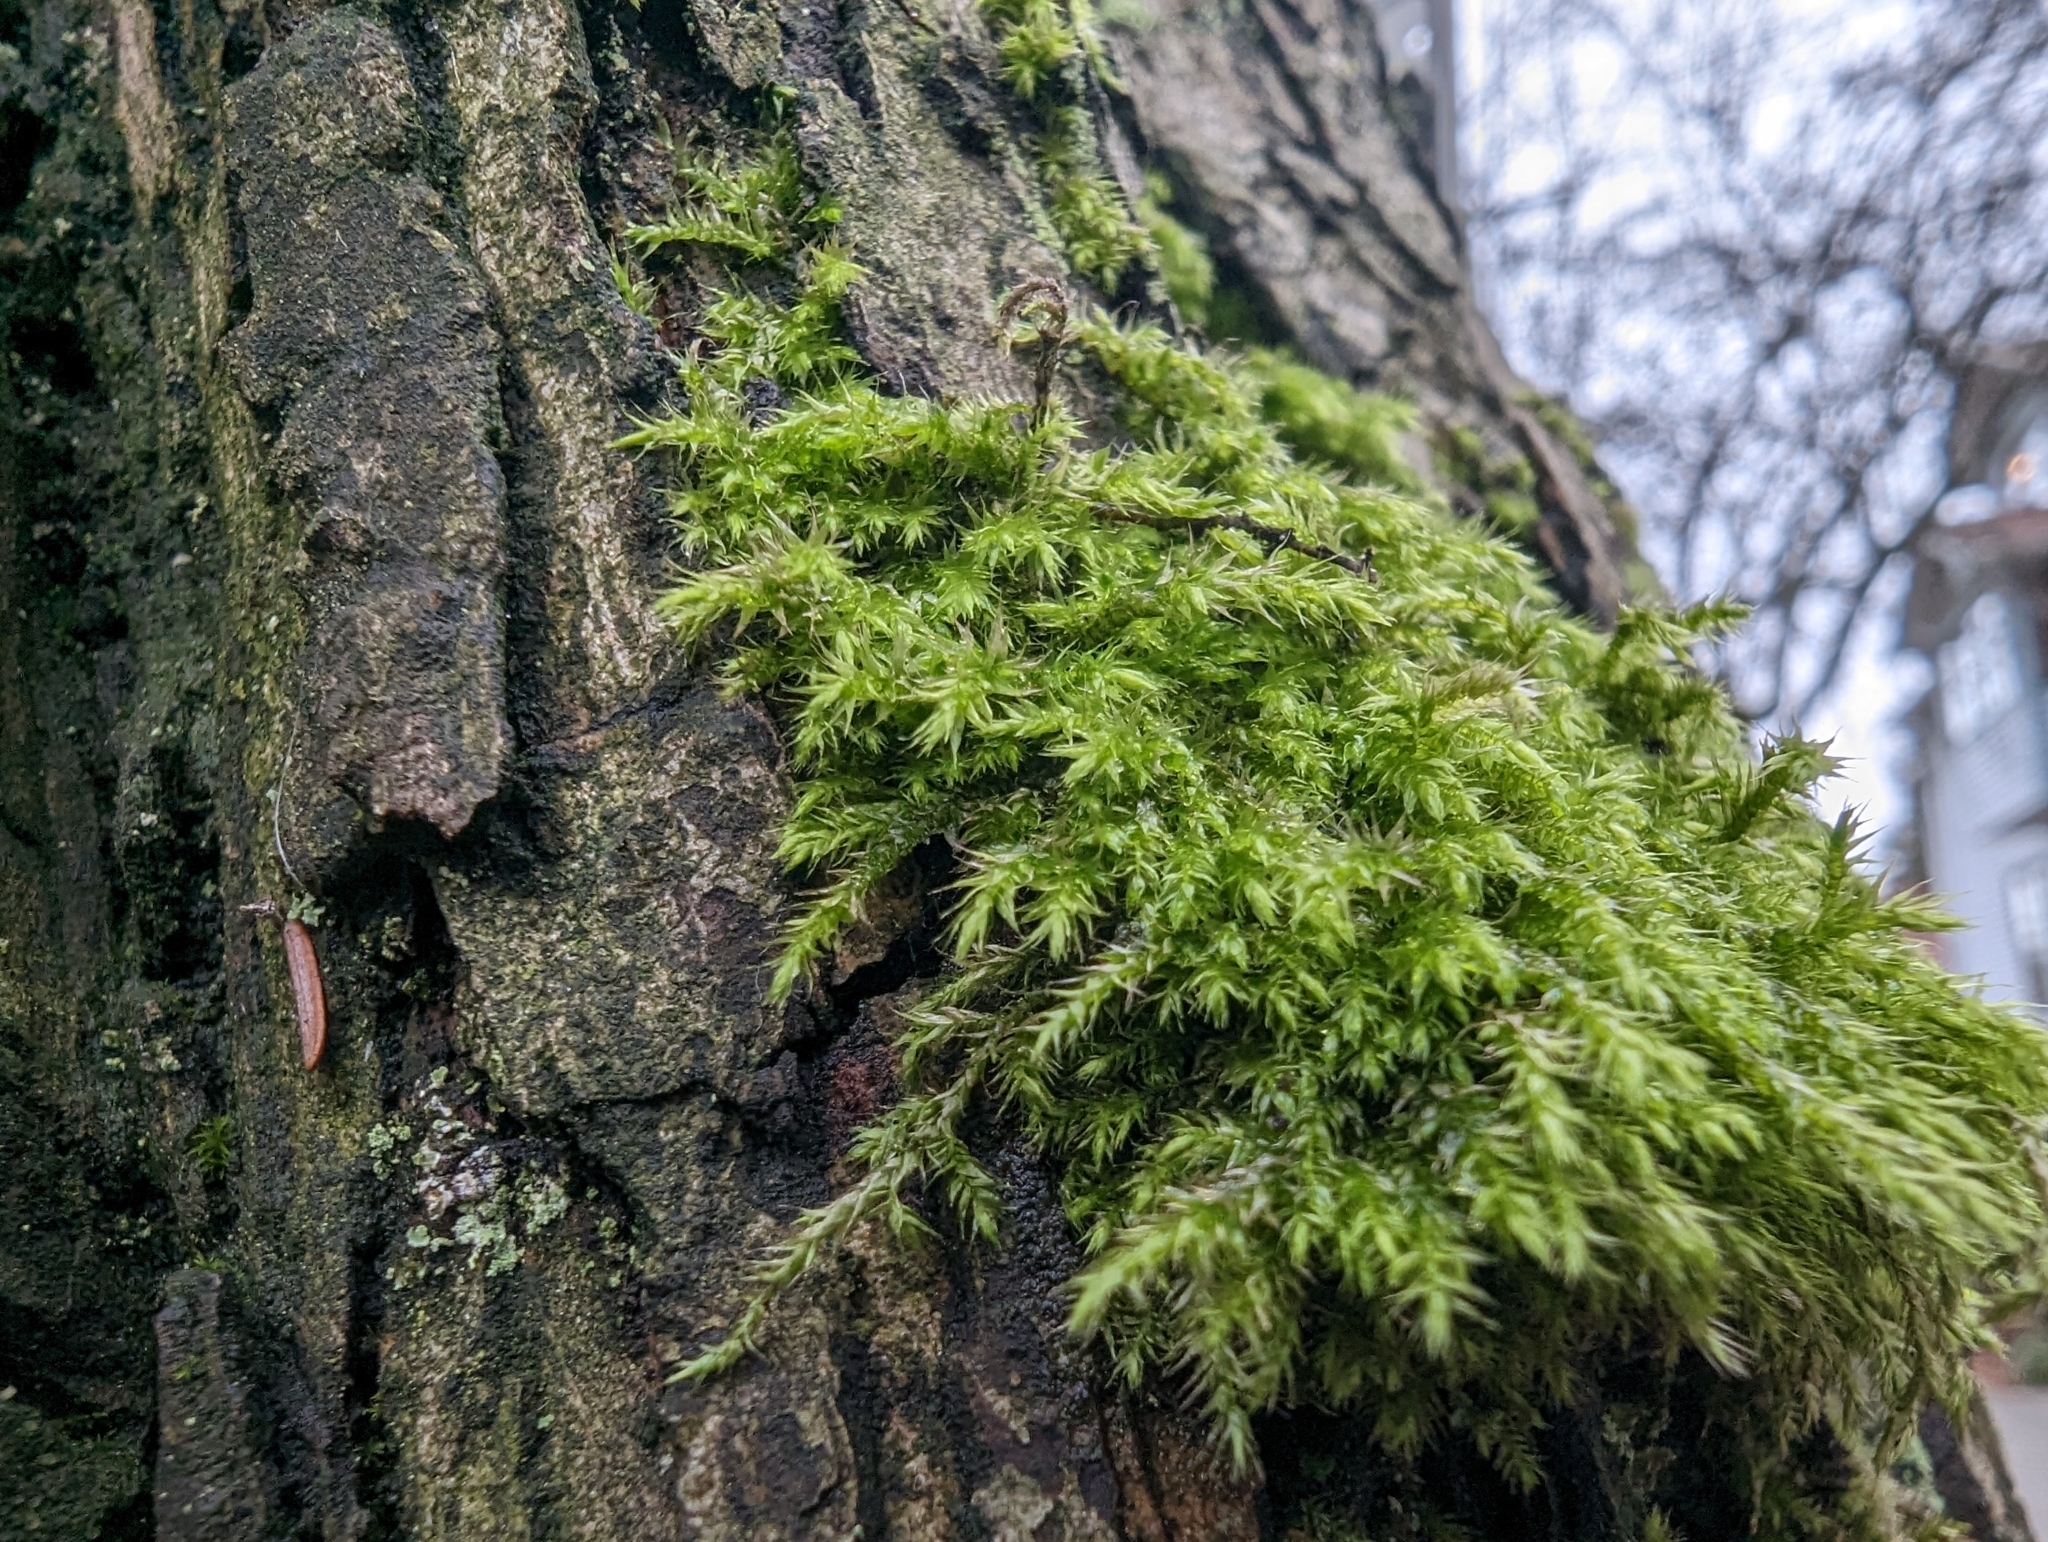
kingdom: Plantae
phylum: Bryophyta
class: Bryopsida
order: Hypnales
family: Lembophyllaceae
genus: Pseudisothecium
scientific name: Pseudisothecium stoloniferum
